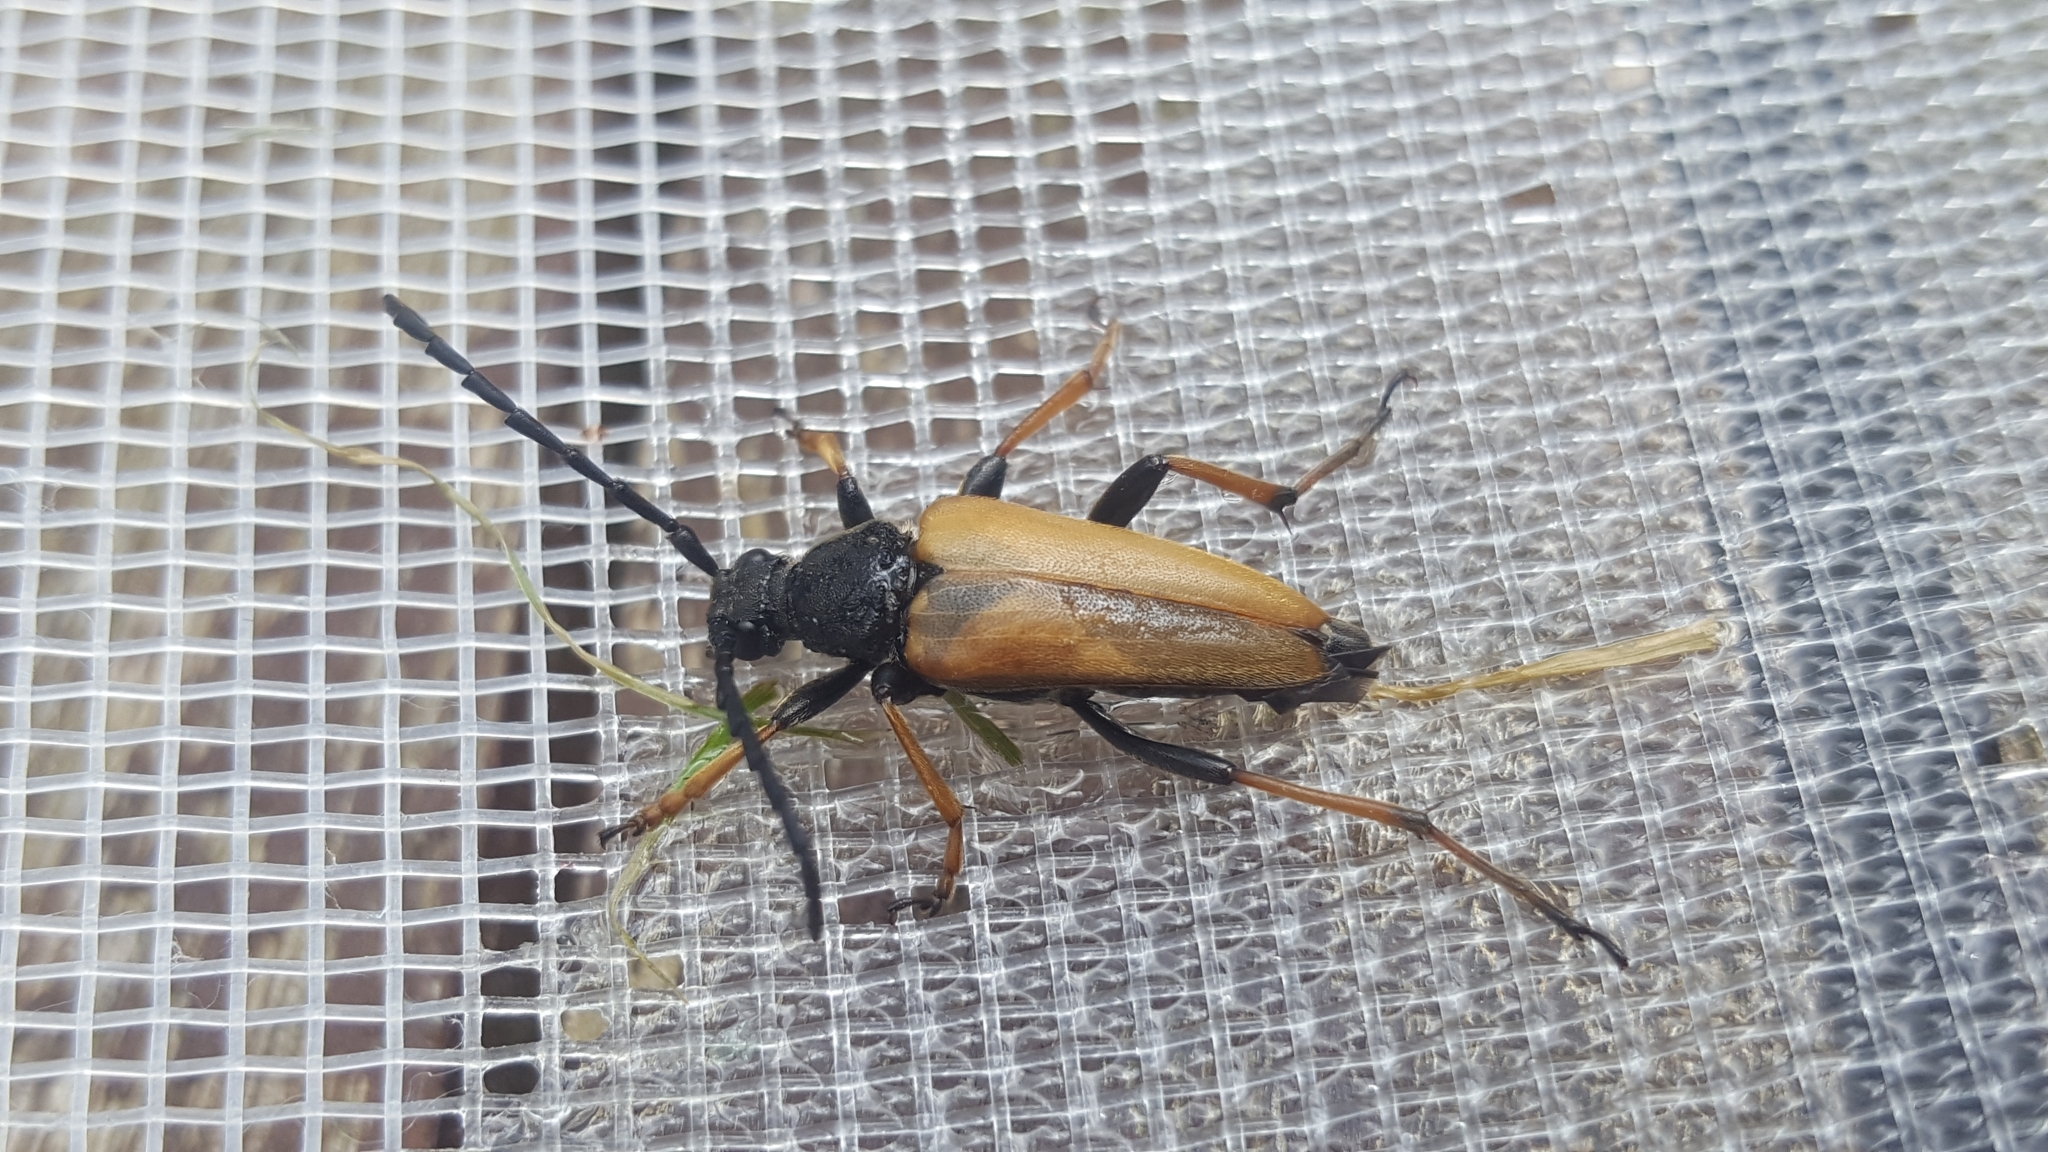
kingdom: Animalia
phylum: Arthropoda
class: Insecta
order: Coleoptera
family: Cerambycidae
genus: Stictoleptura
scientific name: Stictoleptura rubra
